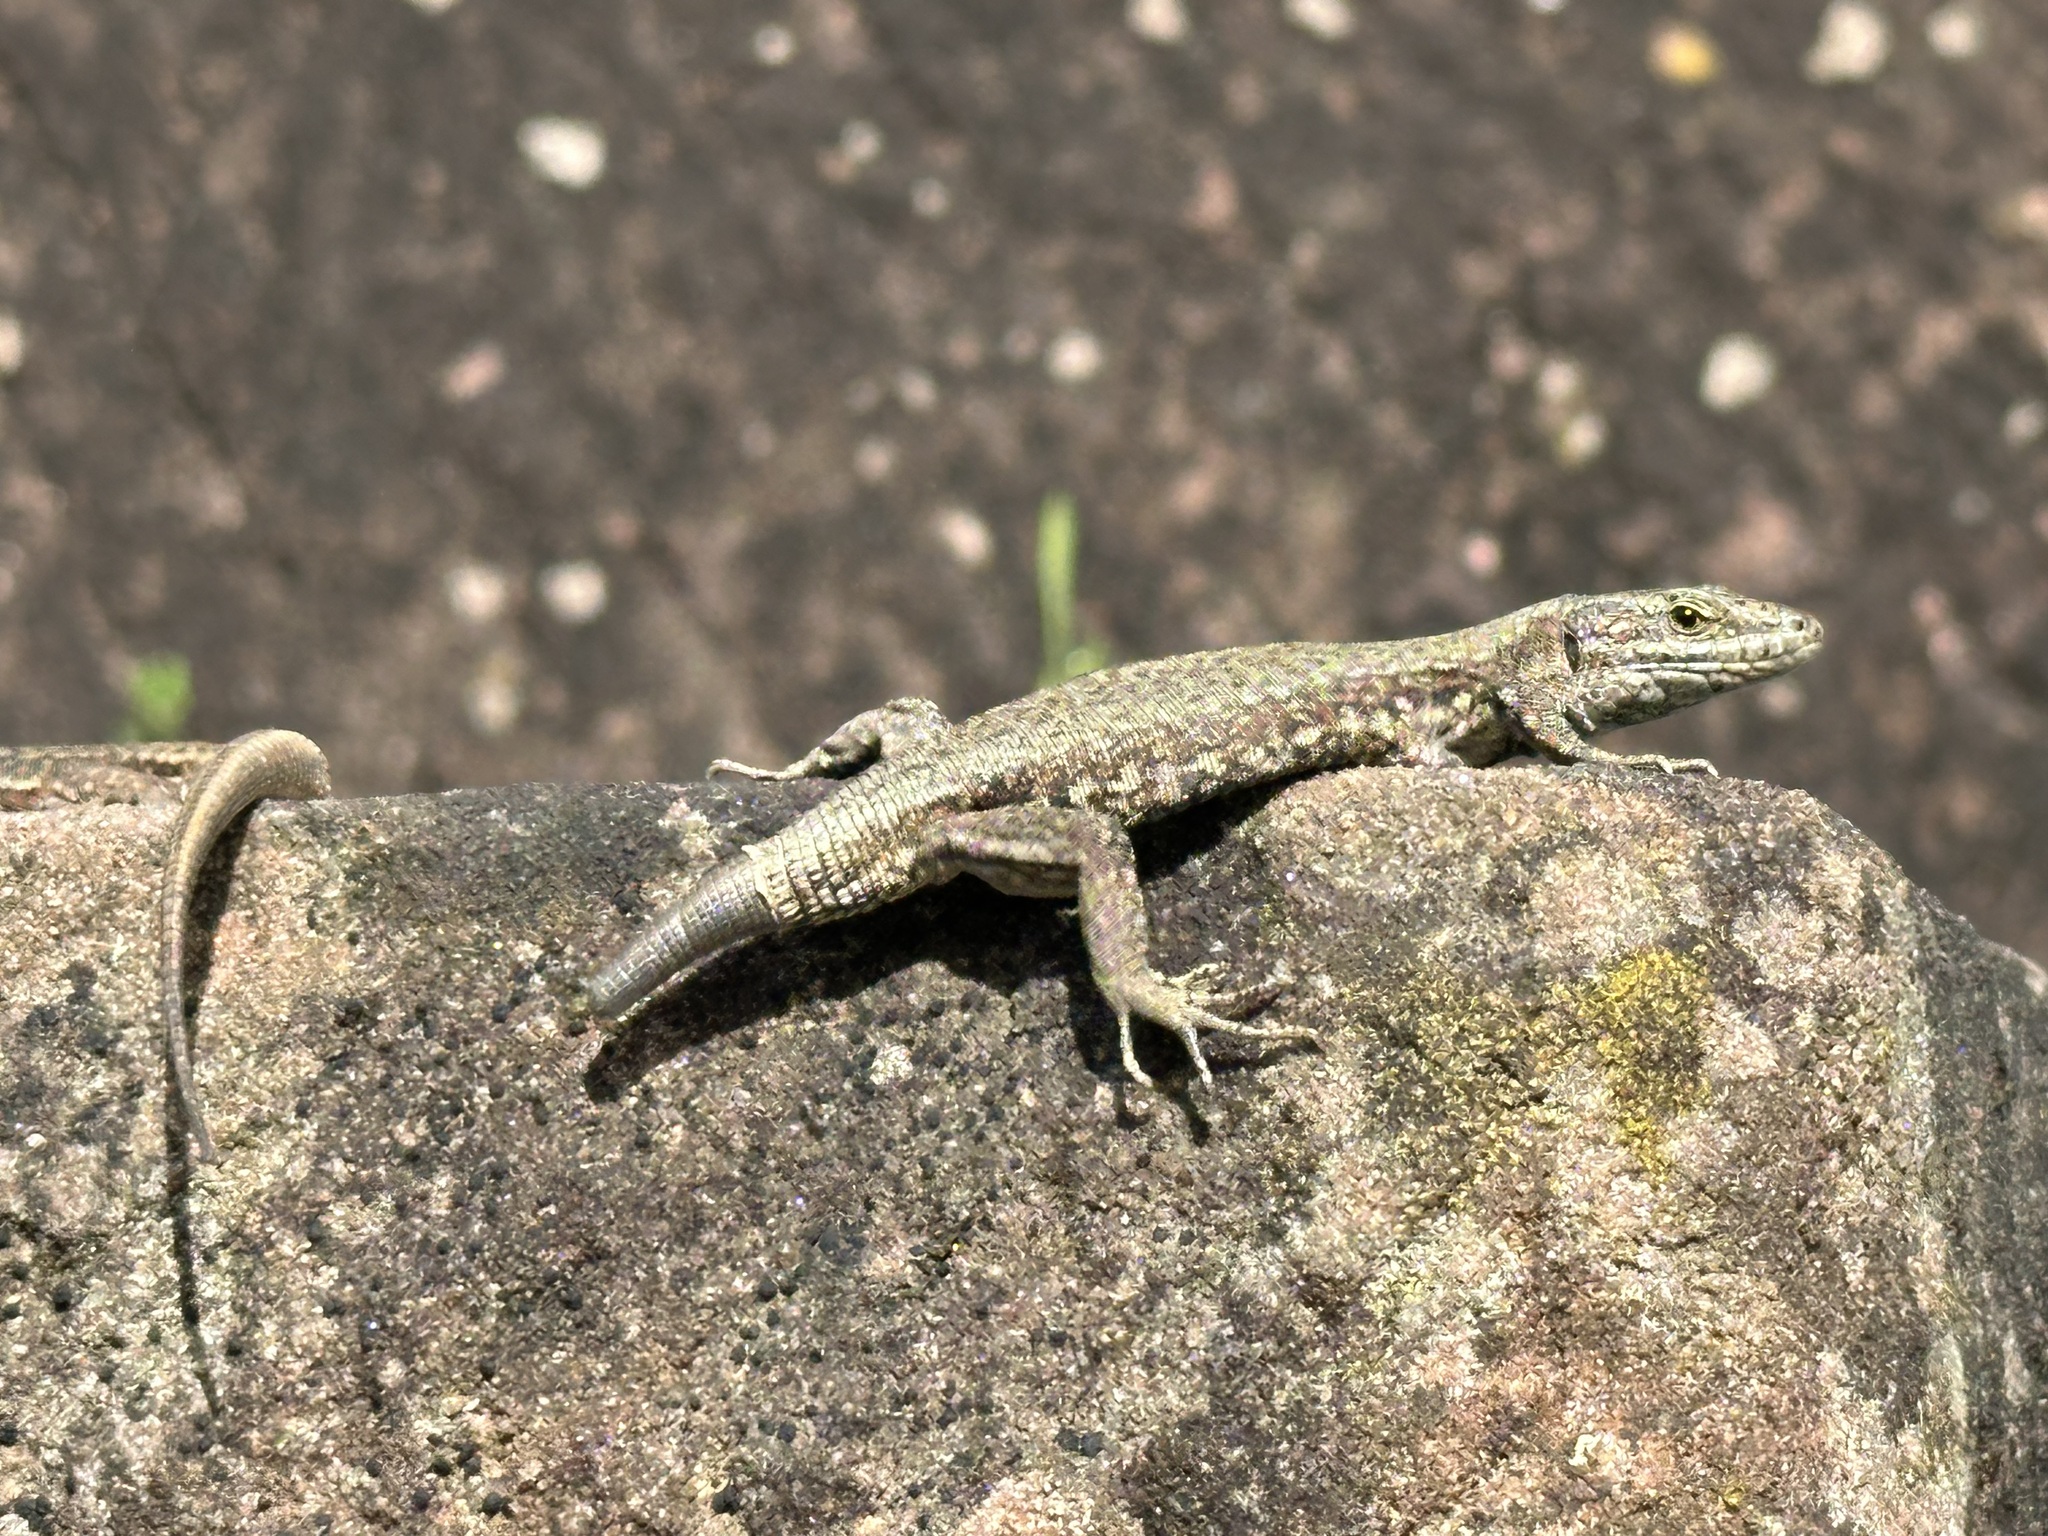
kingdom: Animalia
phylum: Chordata
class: Squamata
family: Lacertidae
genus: Podarcis
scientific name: Podarcis muralis
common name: Common wall lizard
